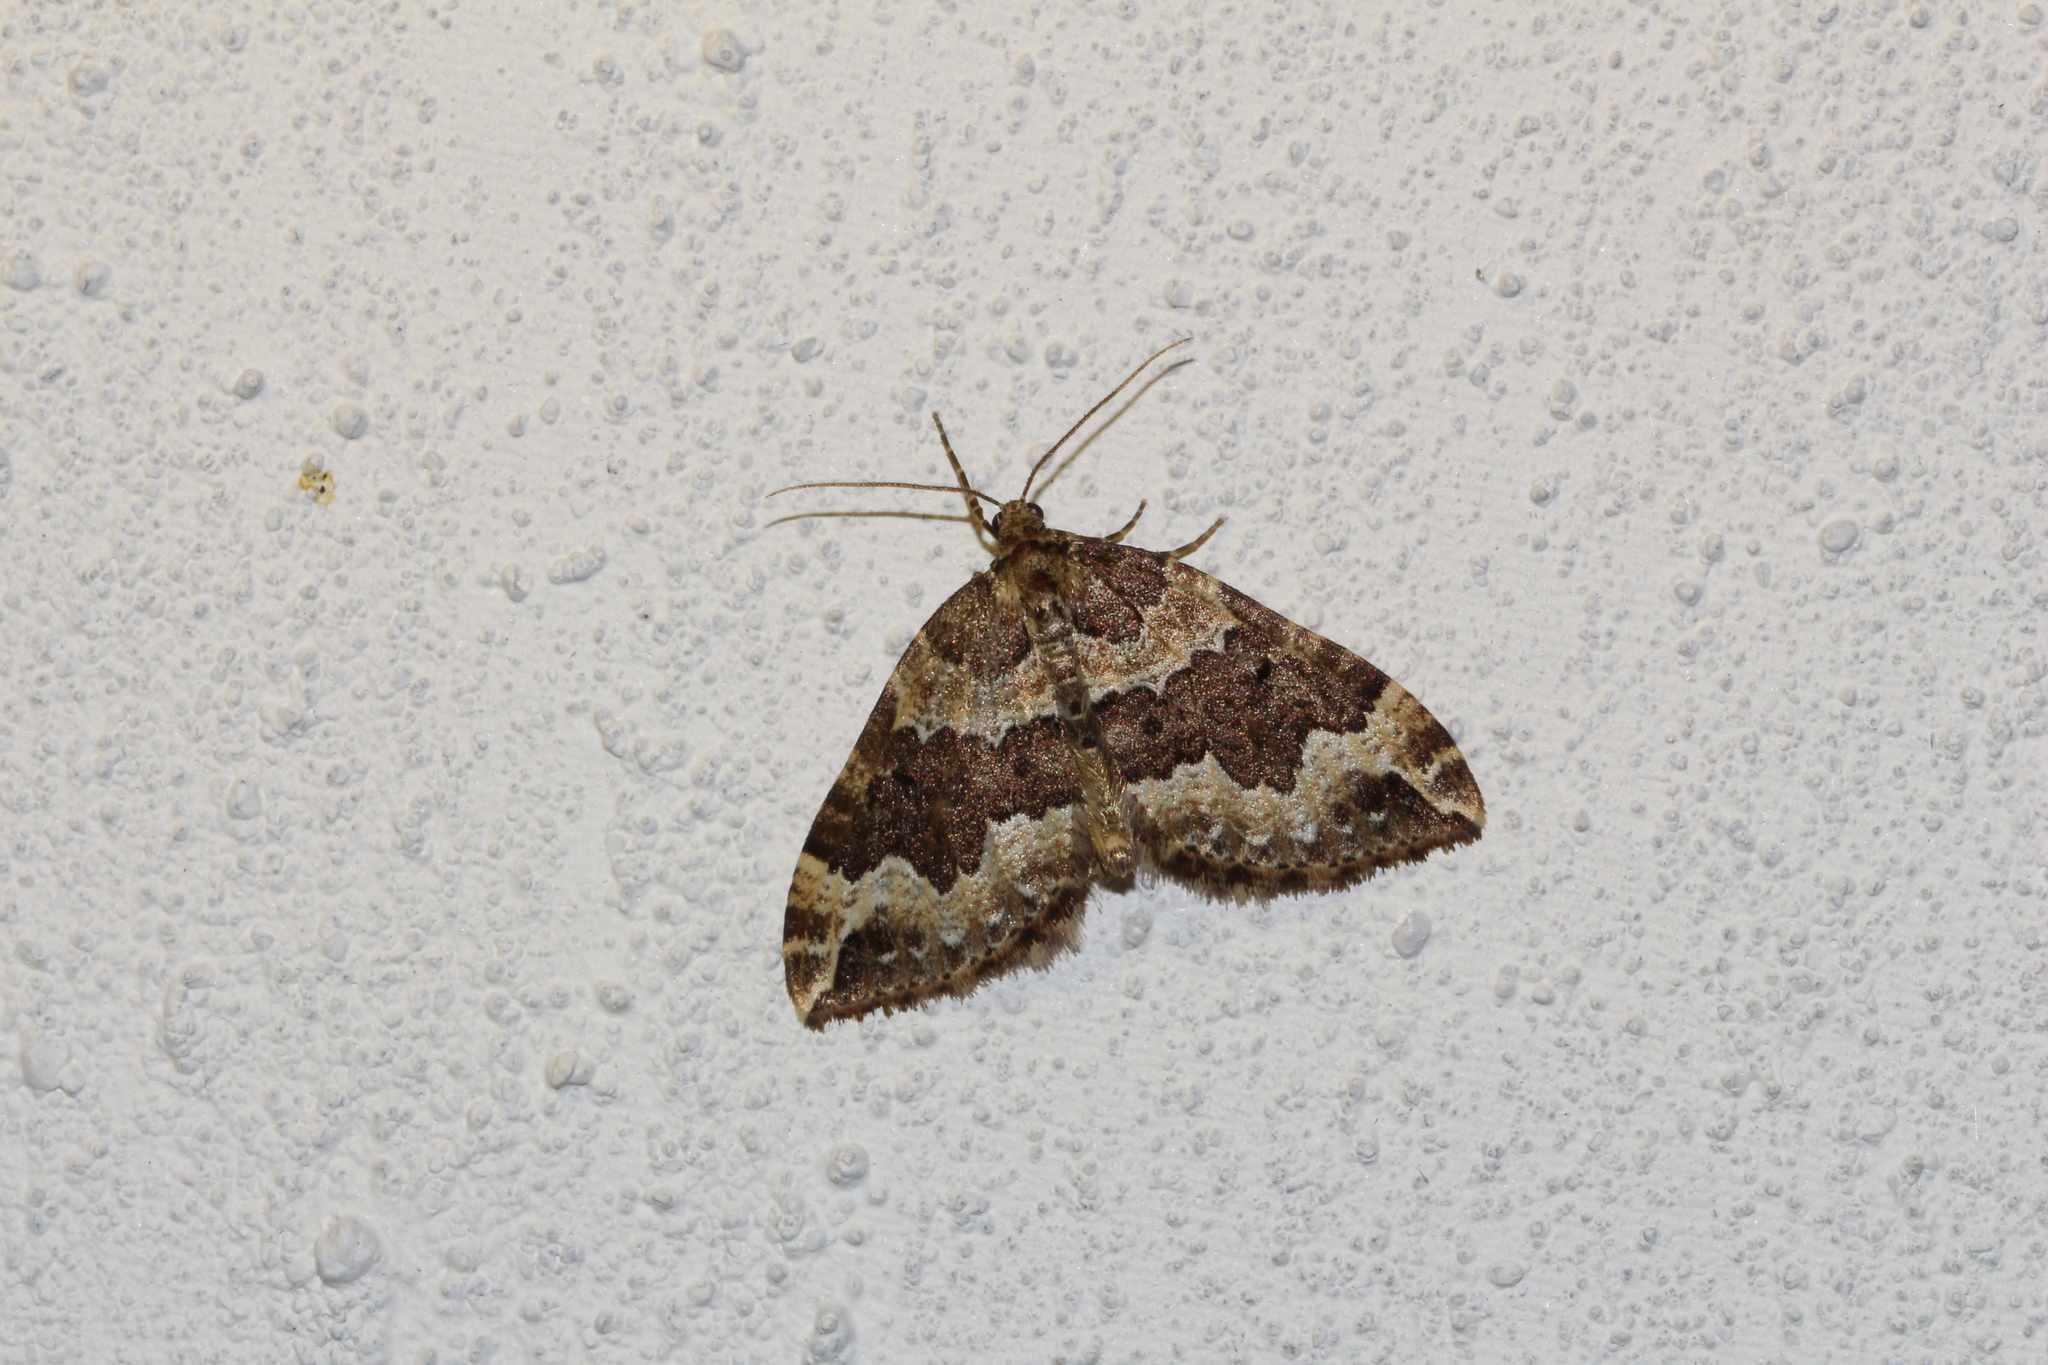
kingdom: Animalia
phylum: Arthropoda
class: Insecta
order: Lepidoptera
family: Geometridae
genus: Lampropteryx
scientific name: Lampropteryx suffumata
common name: Water carpet
